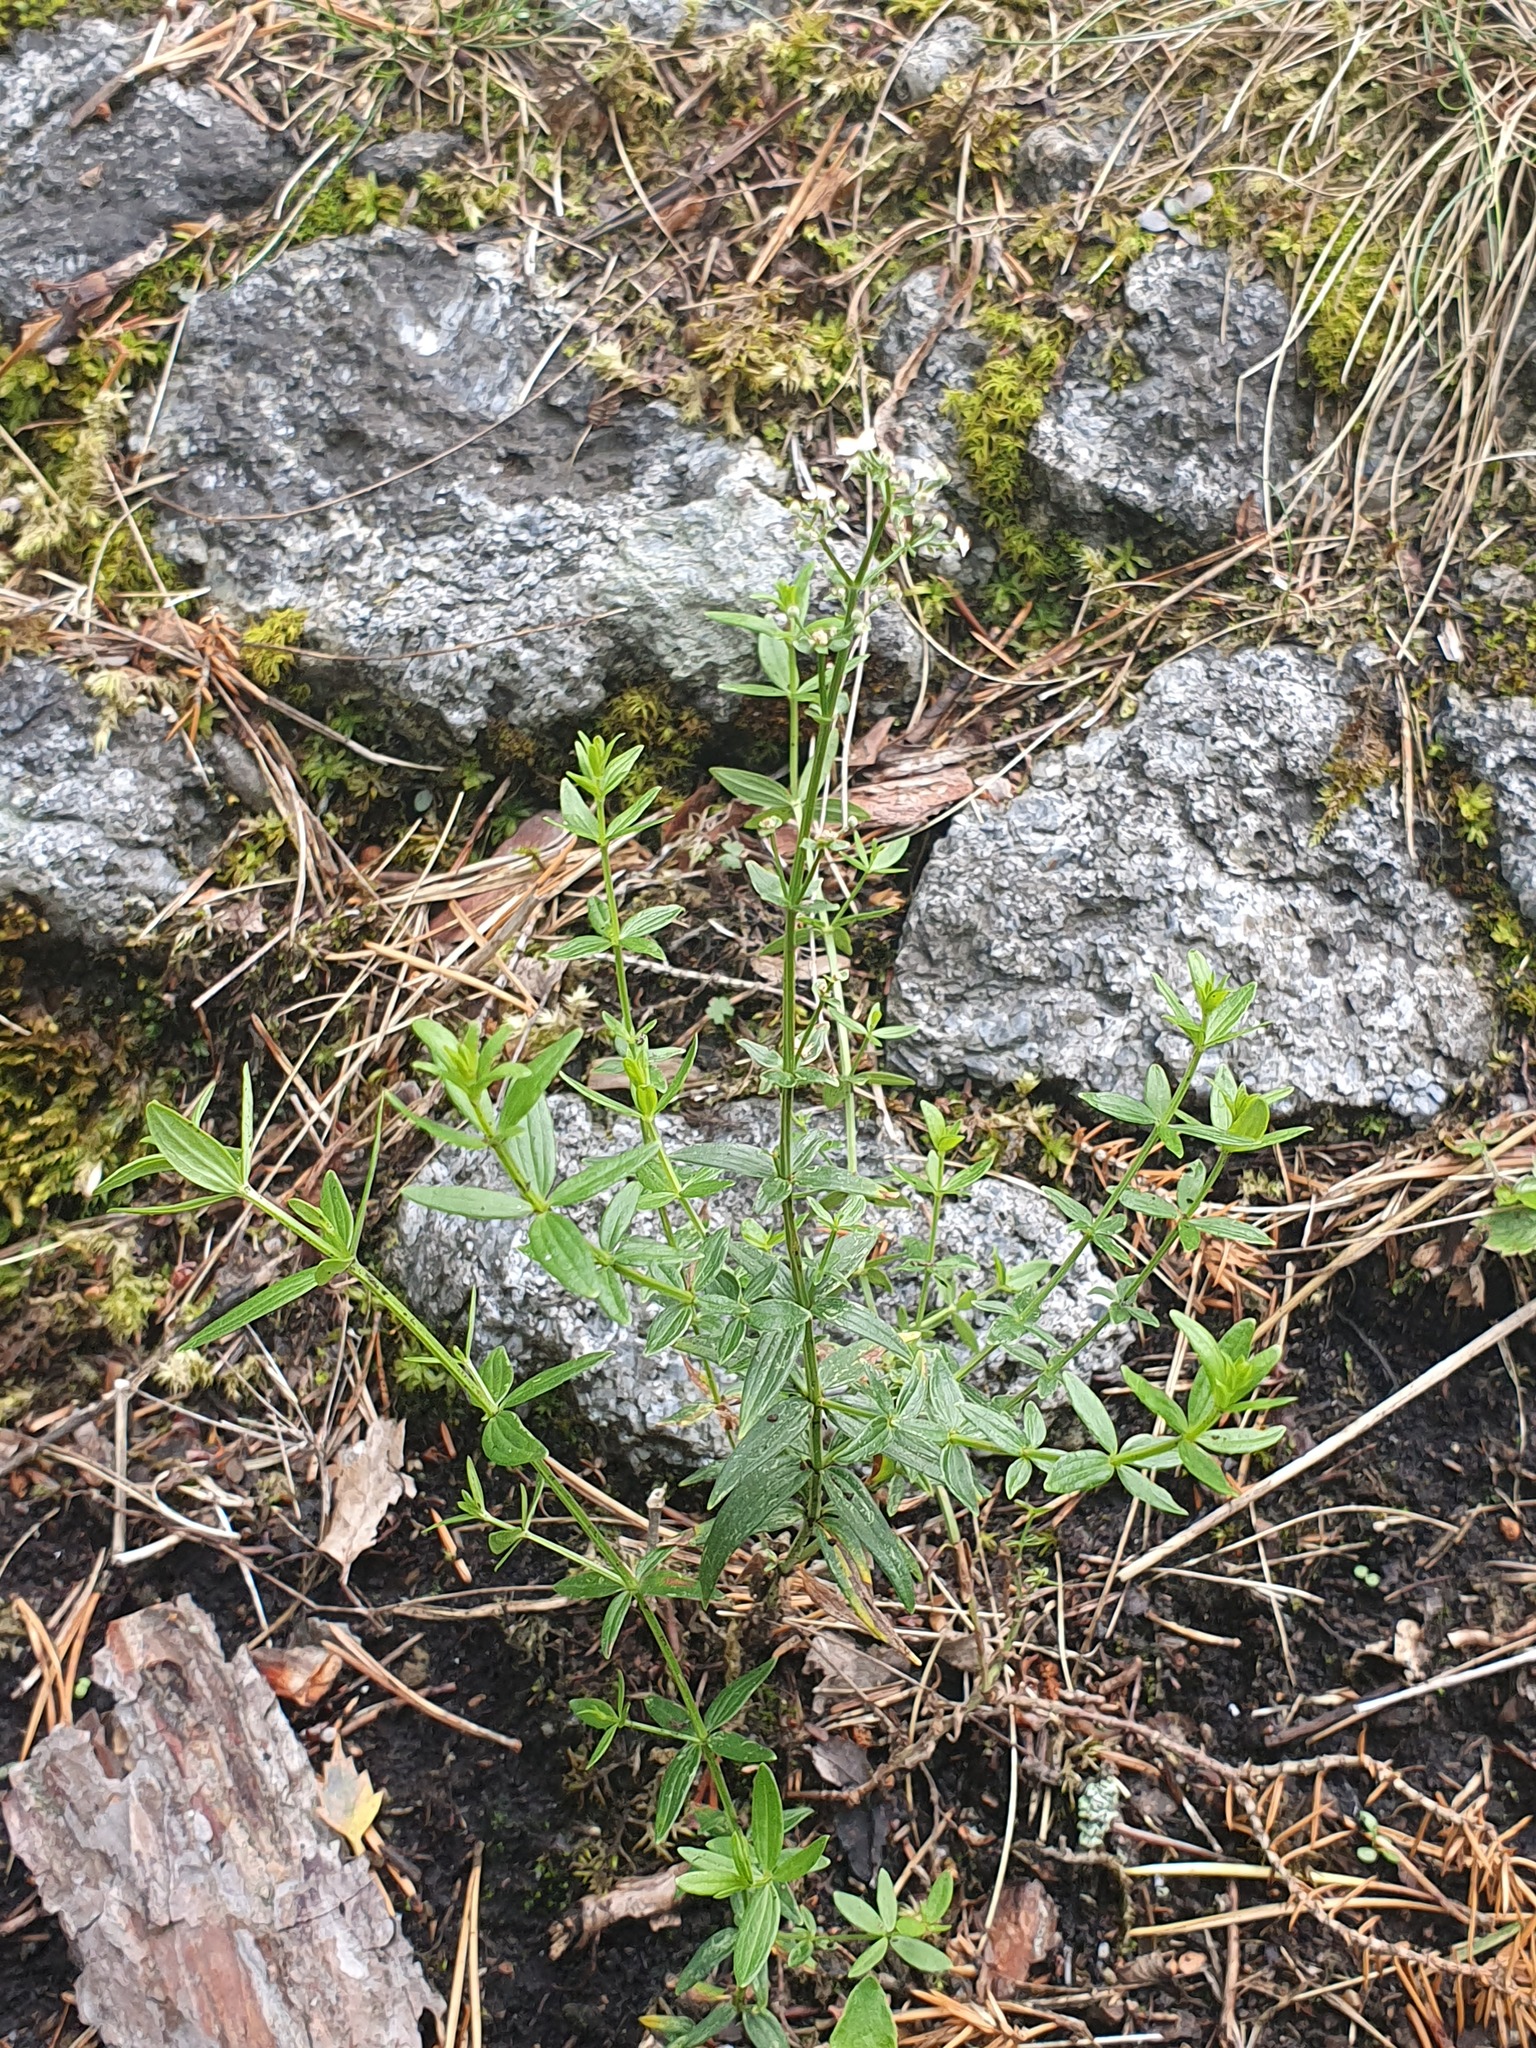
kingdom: Plantae
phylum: Tracheophyta
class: Magnoliopsida
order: Gentianales
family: Rubiaceae
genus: Galium
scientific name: Galium boreale
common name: Northern bedstraw
